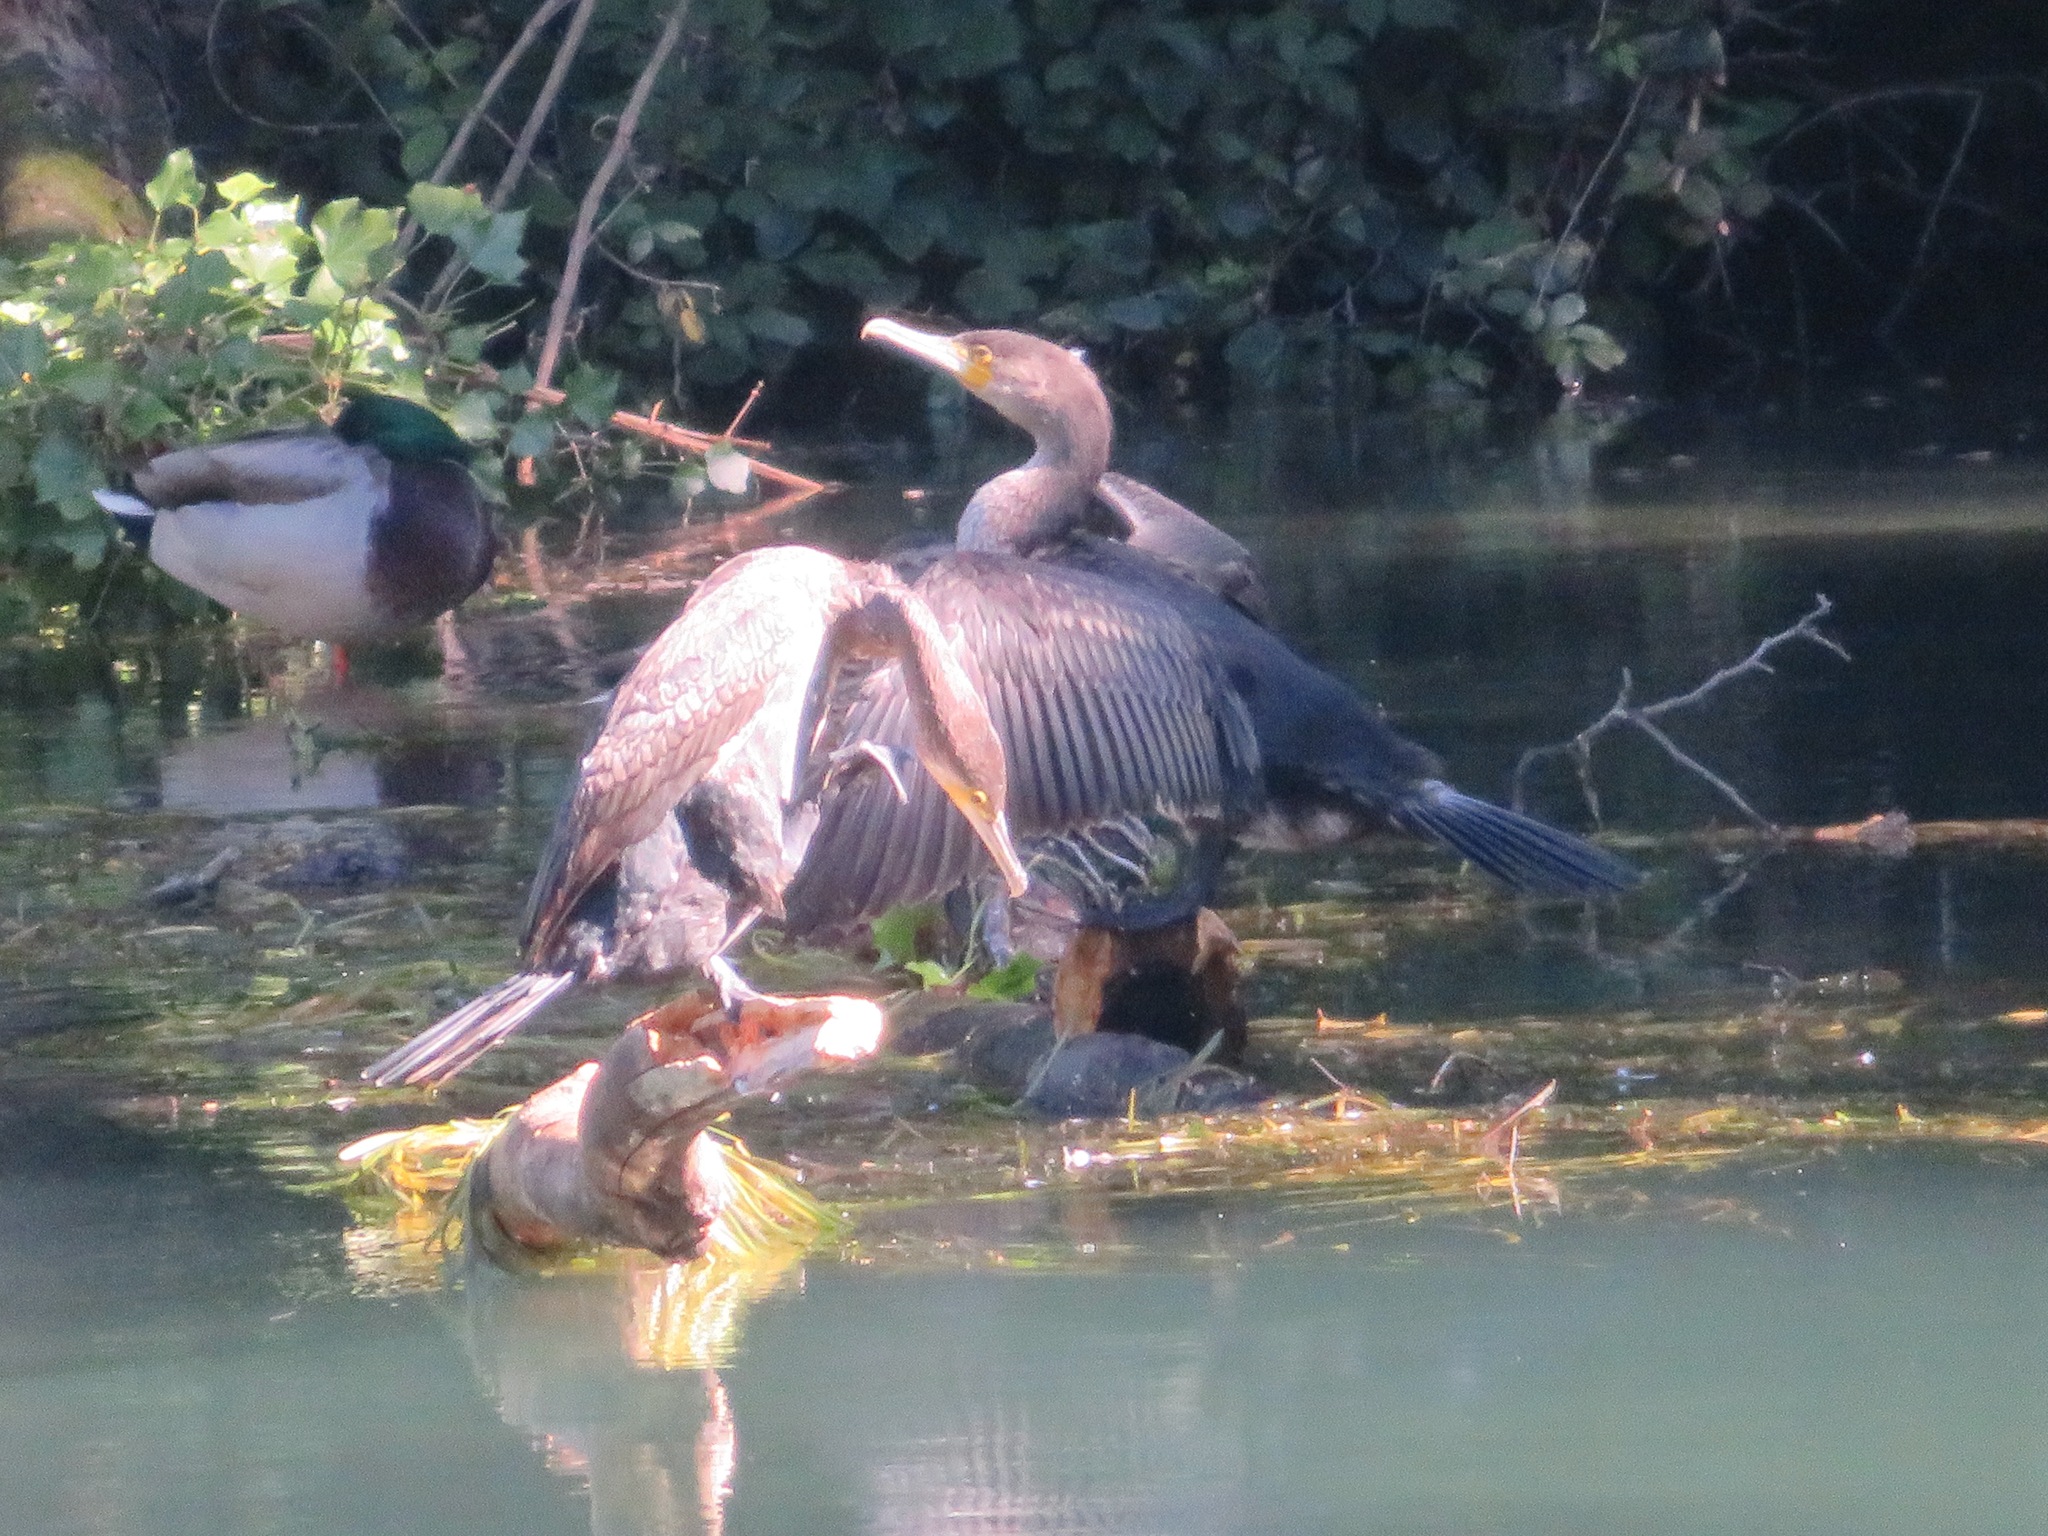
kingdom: Animalia
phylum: Chordata
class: Aves
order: Suliformes
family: Phalacrocoracidae
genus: Phalacrocorax
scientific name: Phalacrocorax carbo
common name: Great cormorant
